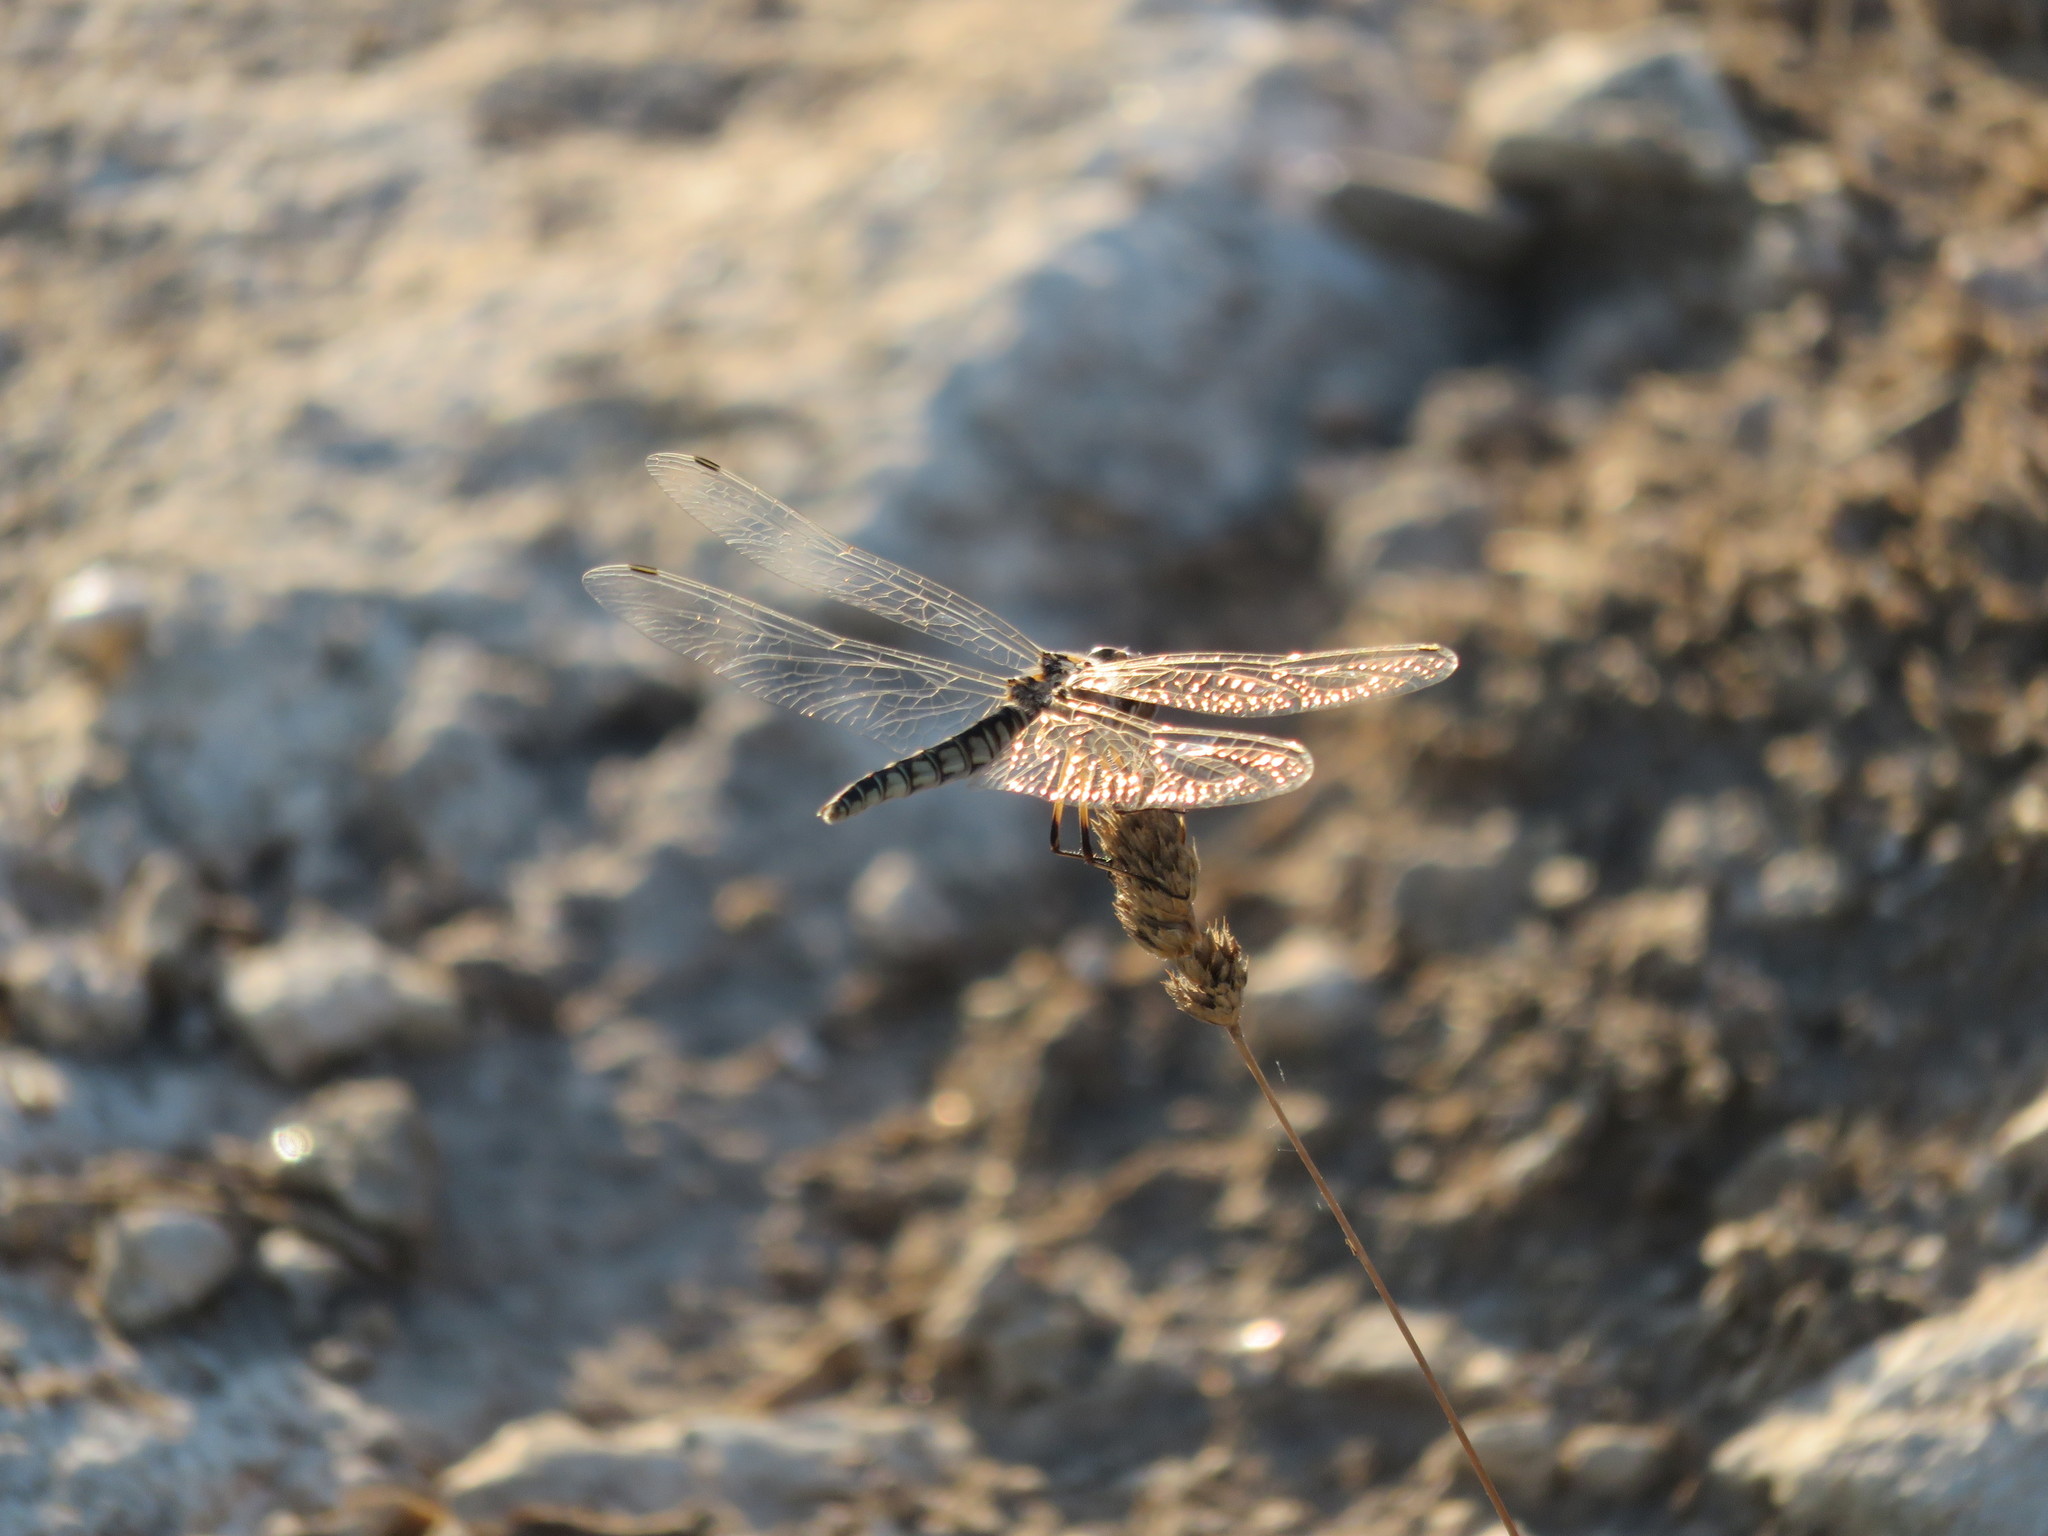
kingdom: Animalia
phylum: Arthropoda
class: Insecta
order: Odonata
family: Libellulidae
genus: Selysiothemis
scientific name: Selysiothemis nigra
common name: Black pennant
